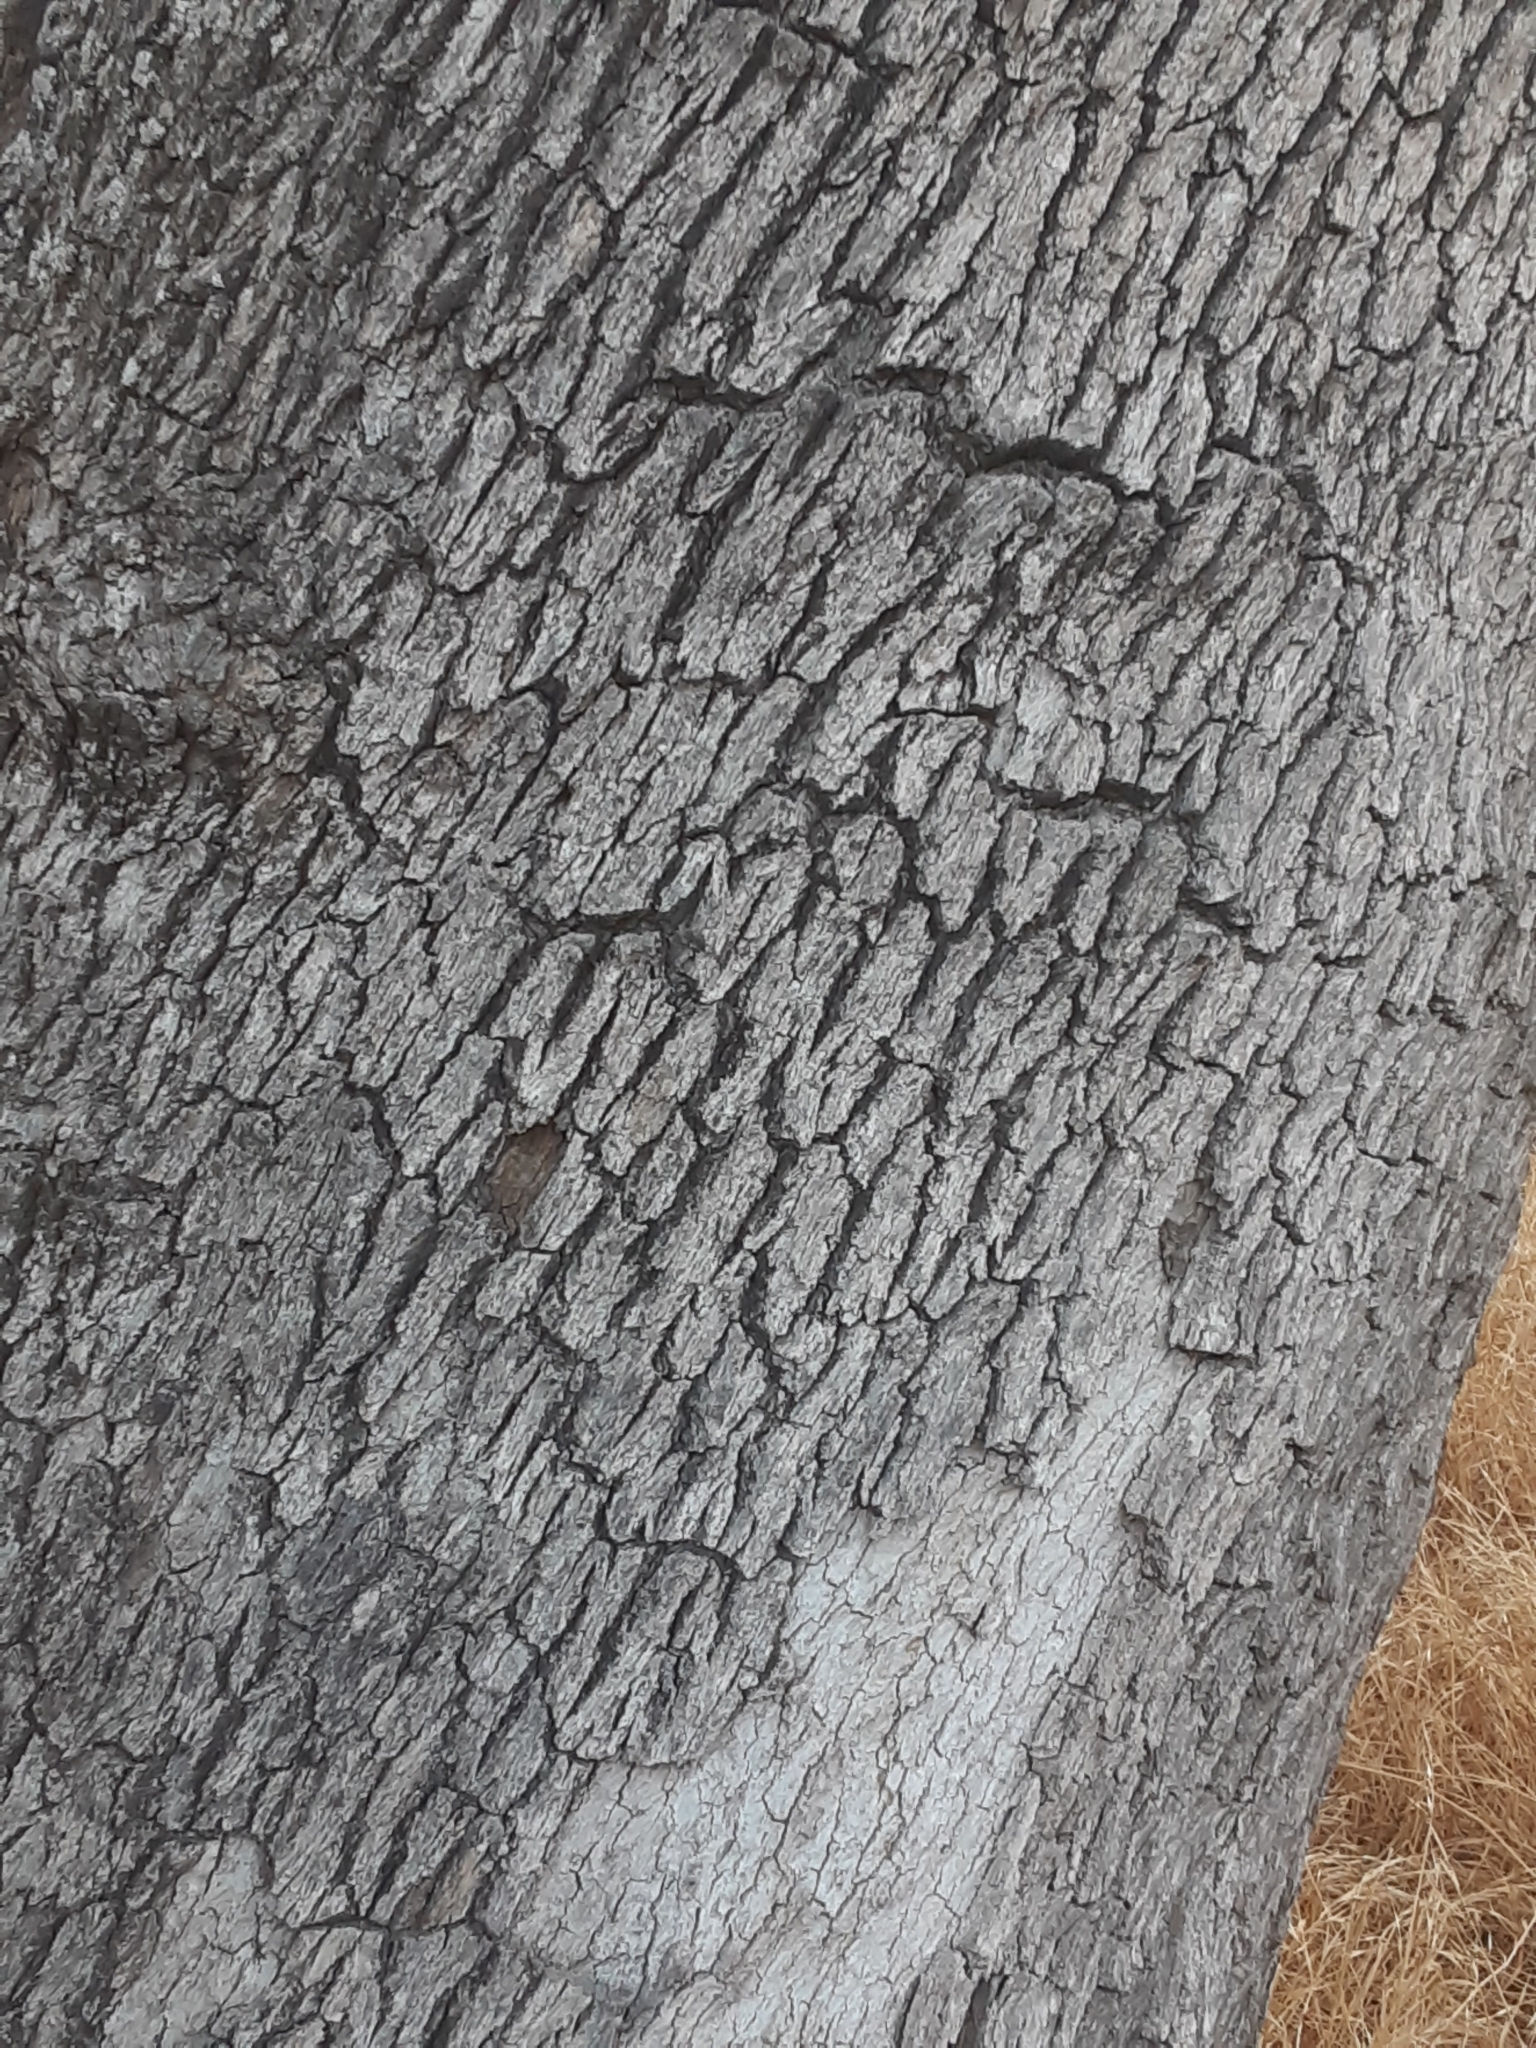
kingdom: Plantae
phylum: Tracheophyta
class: Magnoliopsida
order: Fagales
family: Fagaceae
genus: Quercus
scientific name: Quercus douglasii
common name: Blue oak
